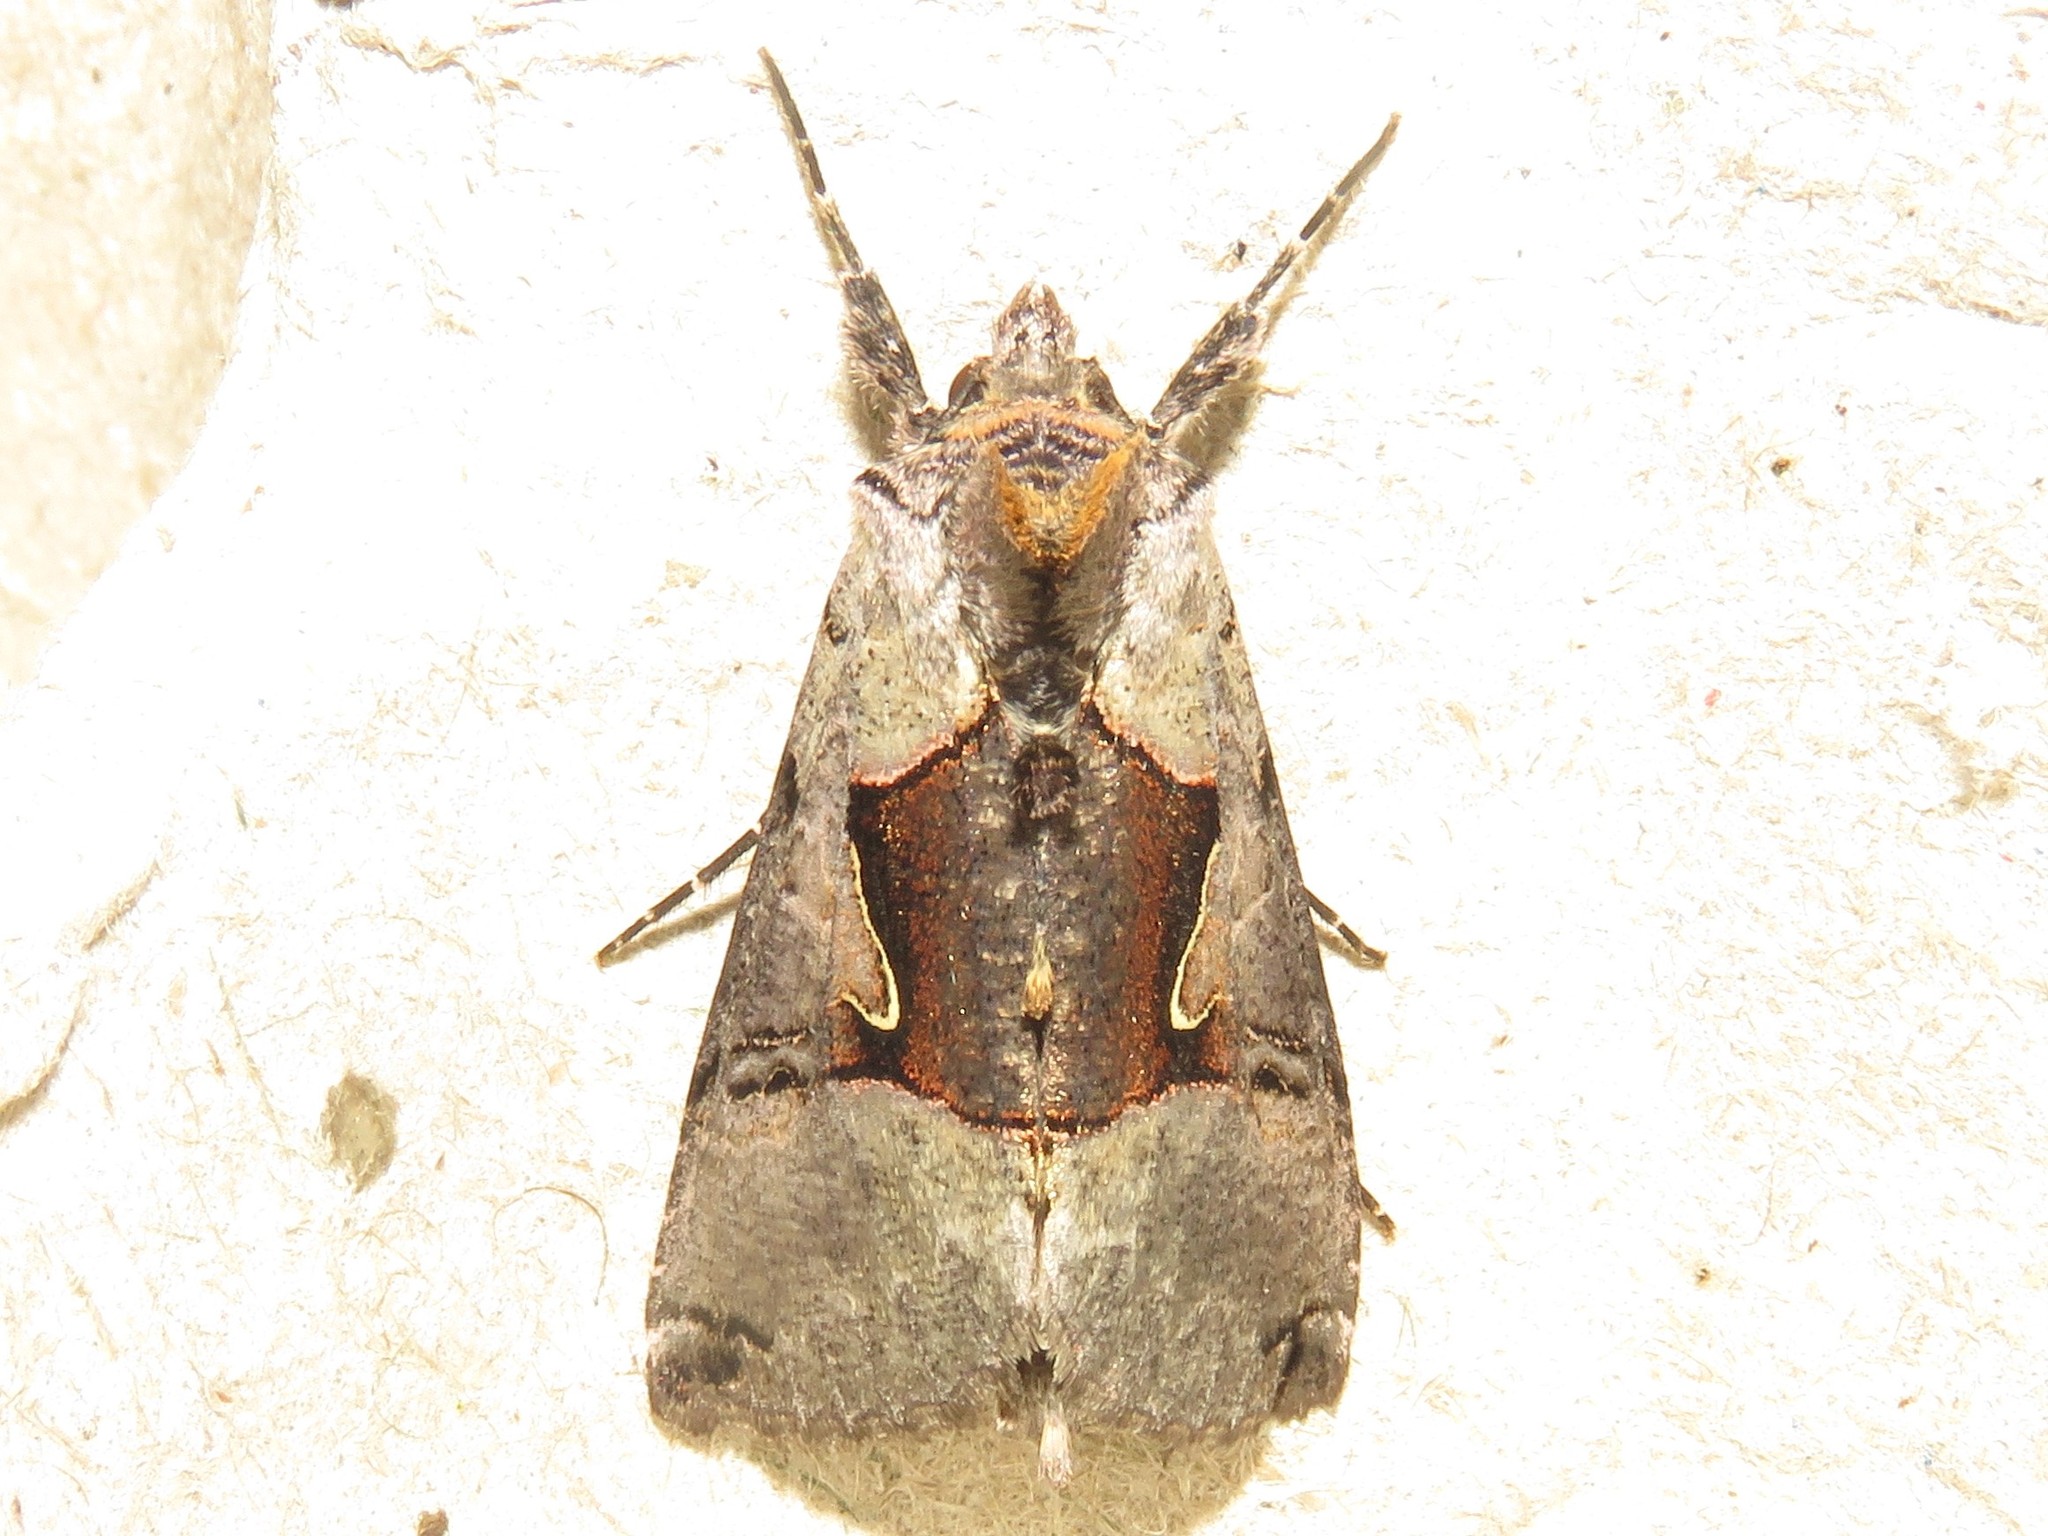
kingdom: Animalia
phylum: Arthropoda
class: Insecta
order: Lepidoptera
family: Noctuidae
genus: Autographa
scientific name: Autographa ampla
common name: Large looper moth
